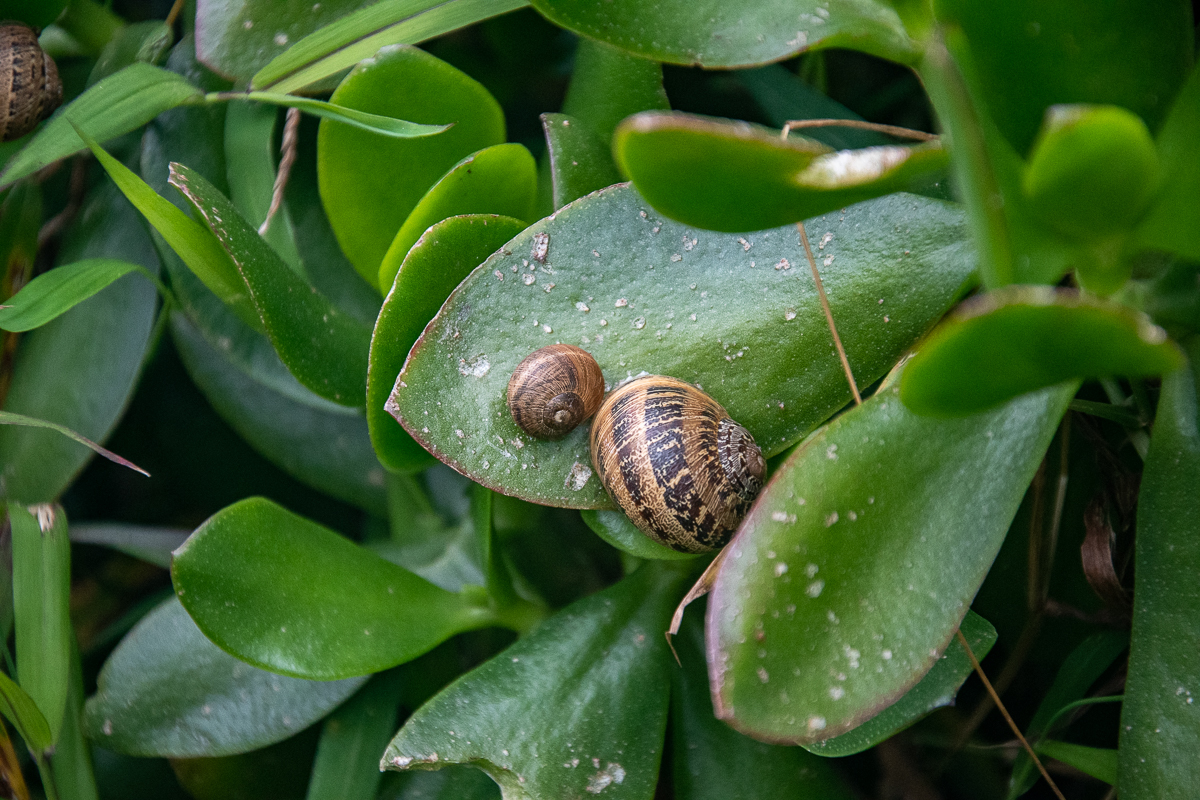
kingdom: Animalia
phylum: Mollusca
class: Gastropoda
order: Stylommatophora
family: Helicidae
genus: Cornu
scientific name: Cornu aspersum
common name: Brown garden snail
